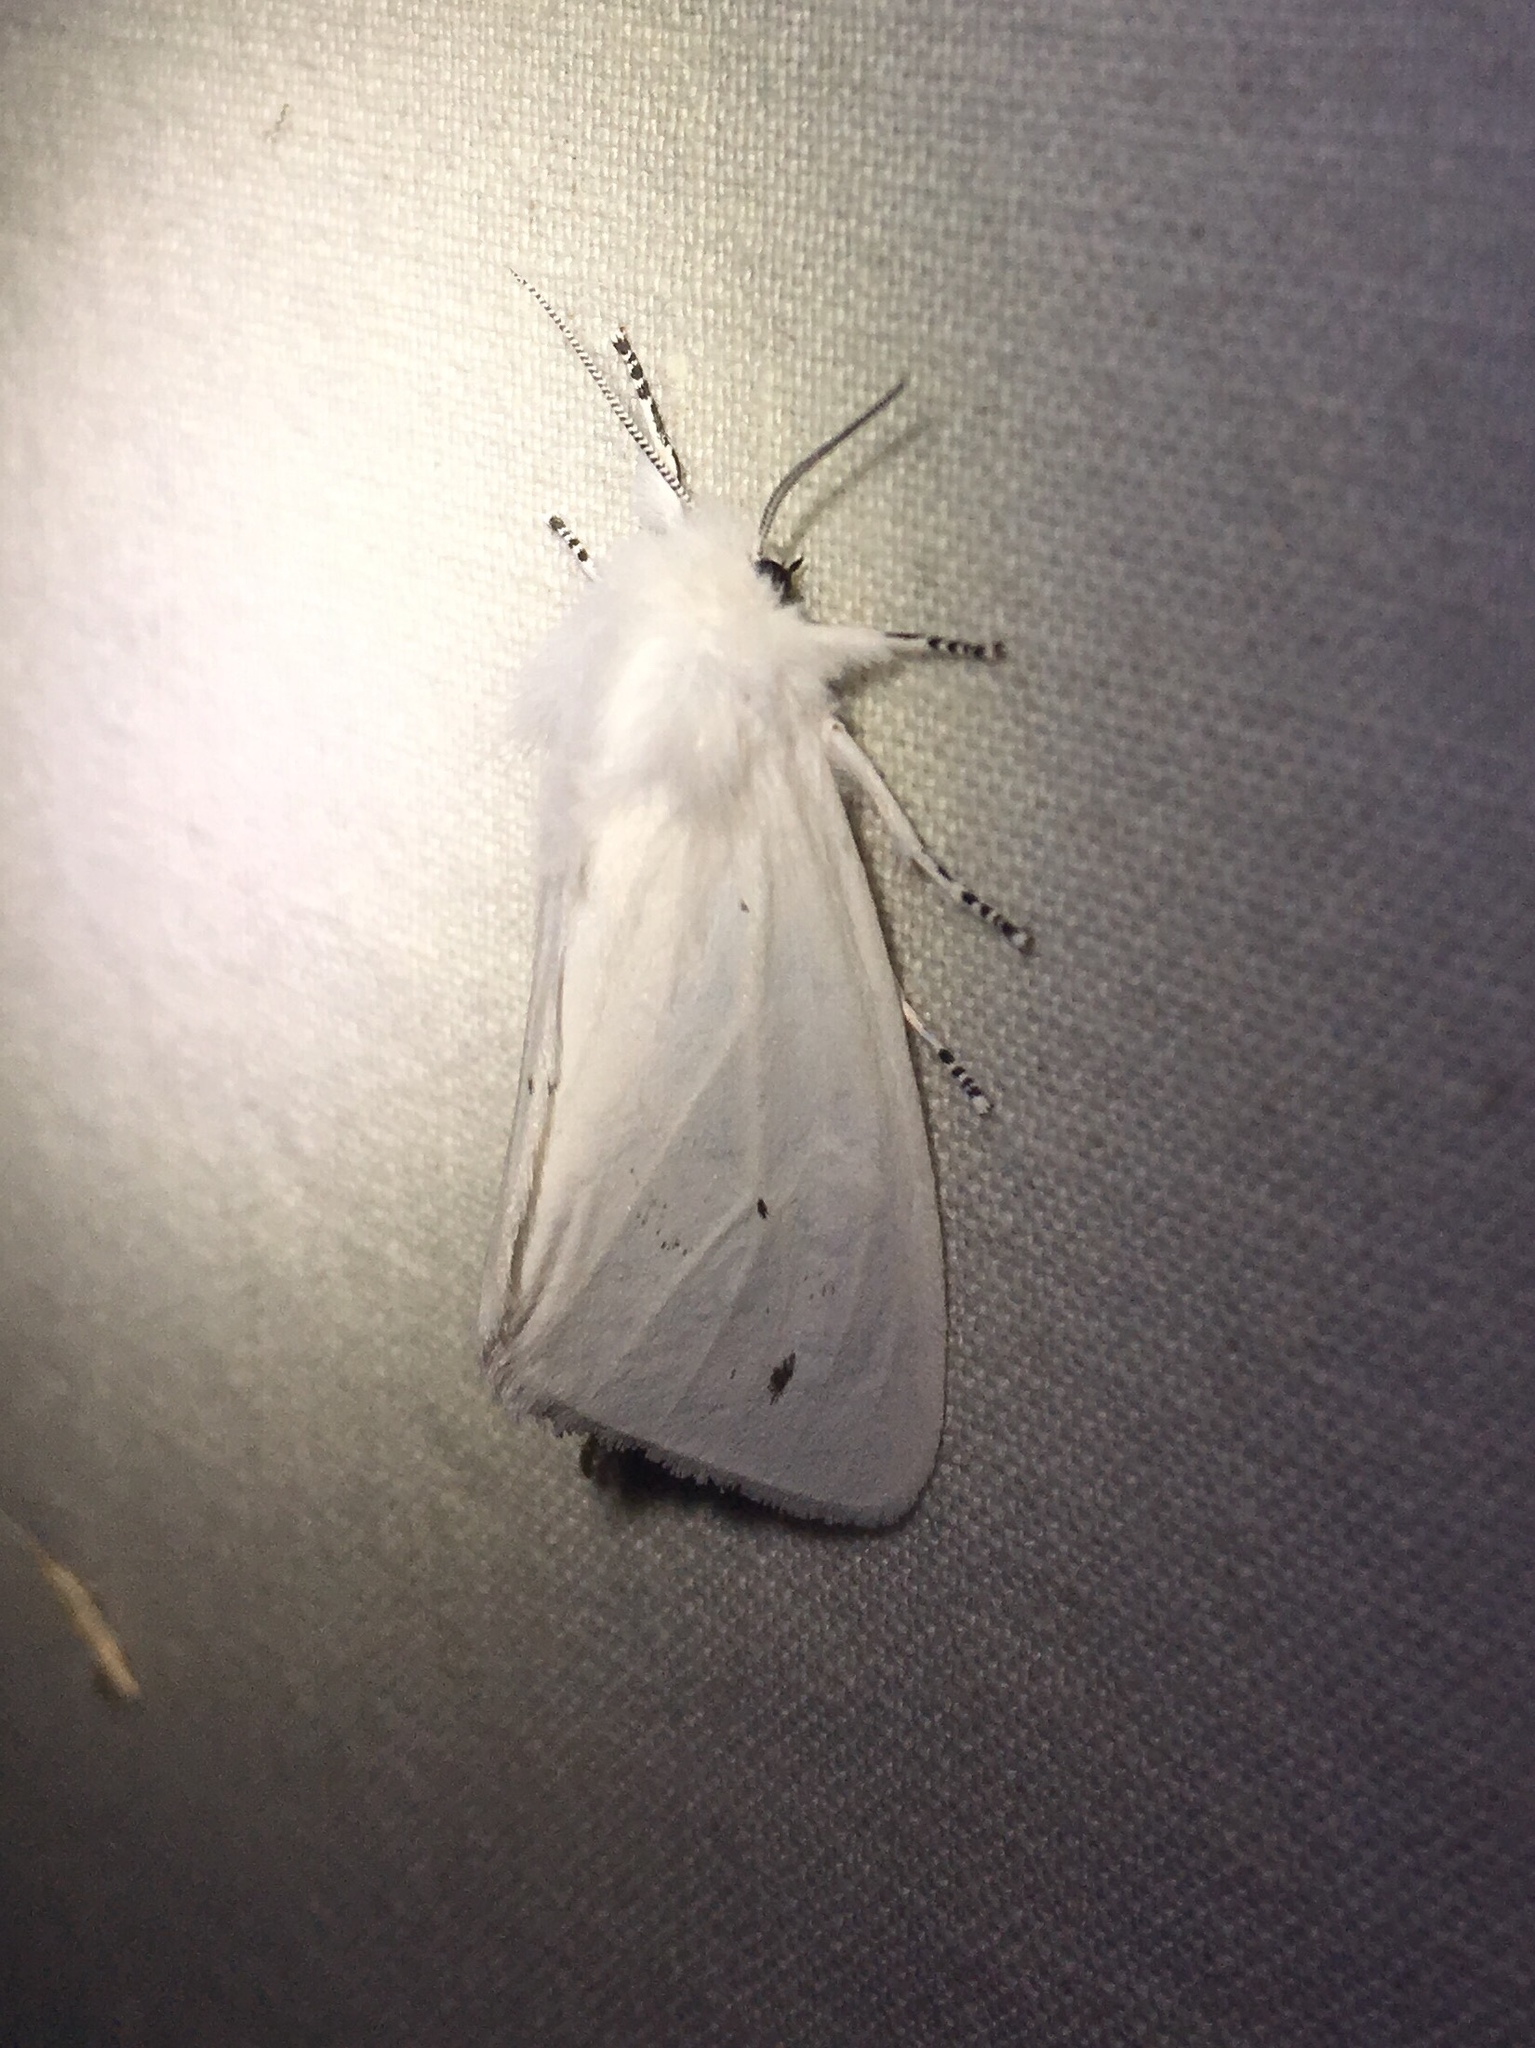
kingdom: Animalia
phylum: Arthropoda
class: Insecta
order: Lepidoptera
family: Erebidae
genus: Spilosoma
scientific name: Spilosoma virginica
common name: Virginia tiger moth
